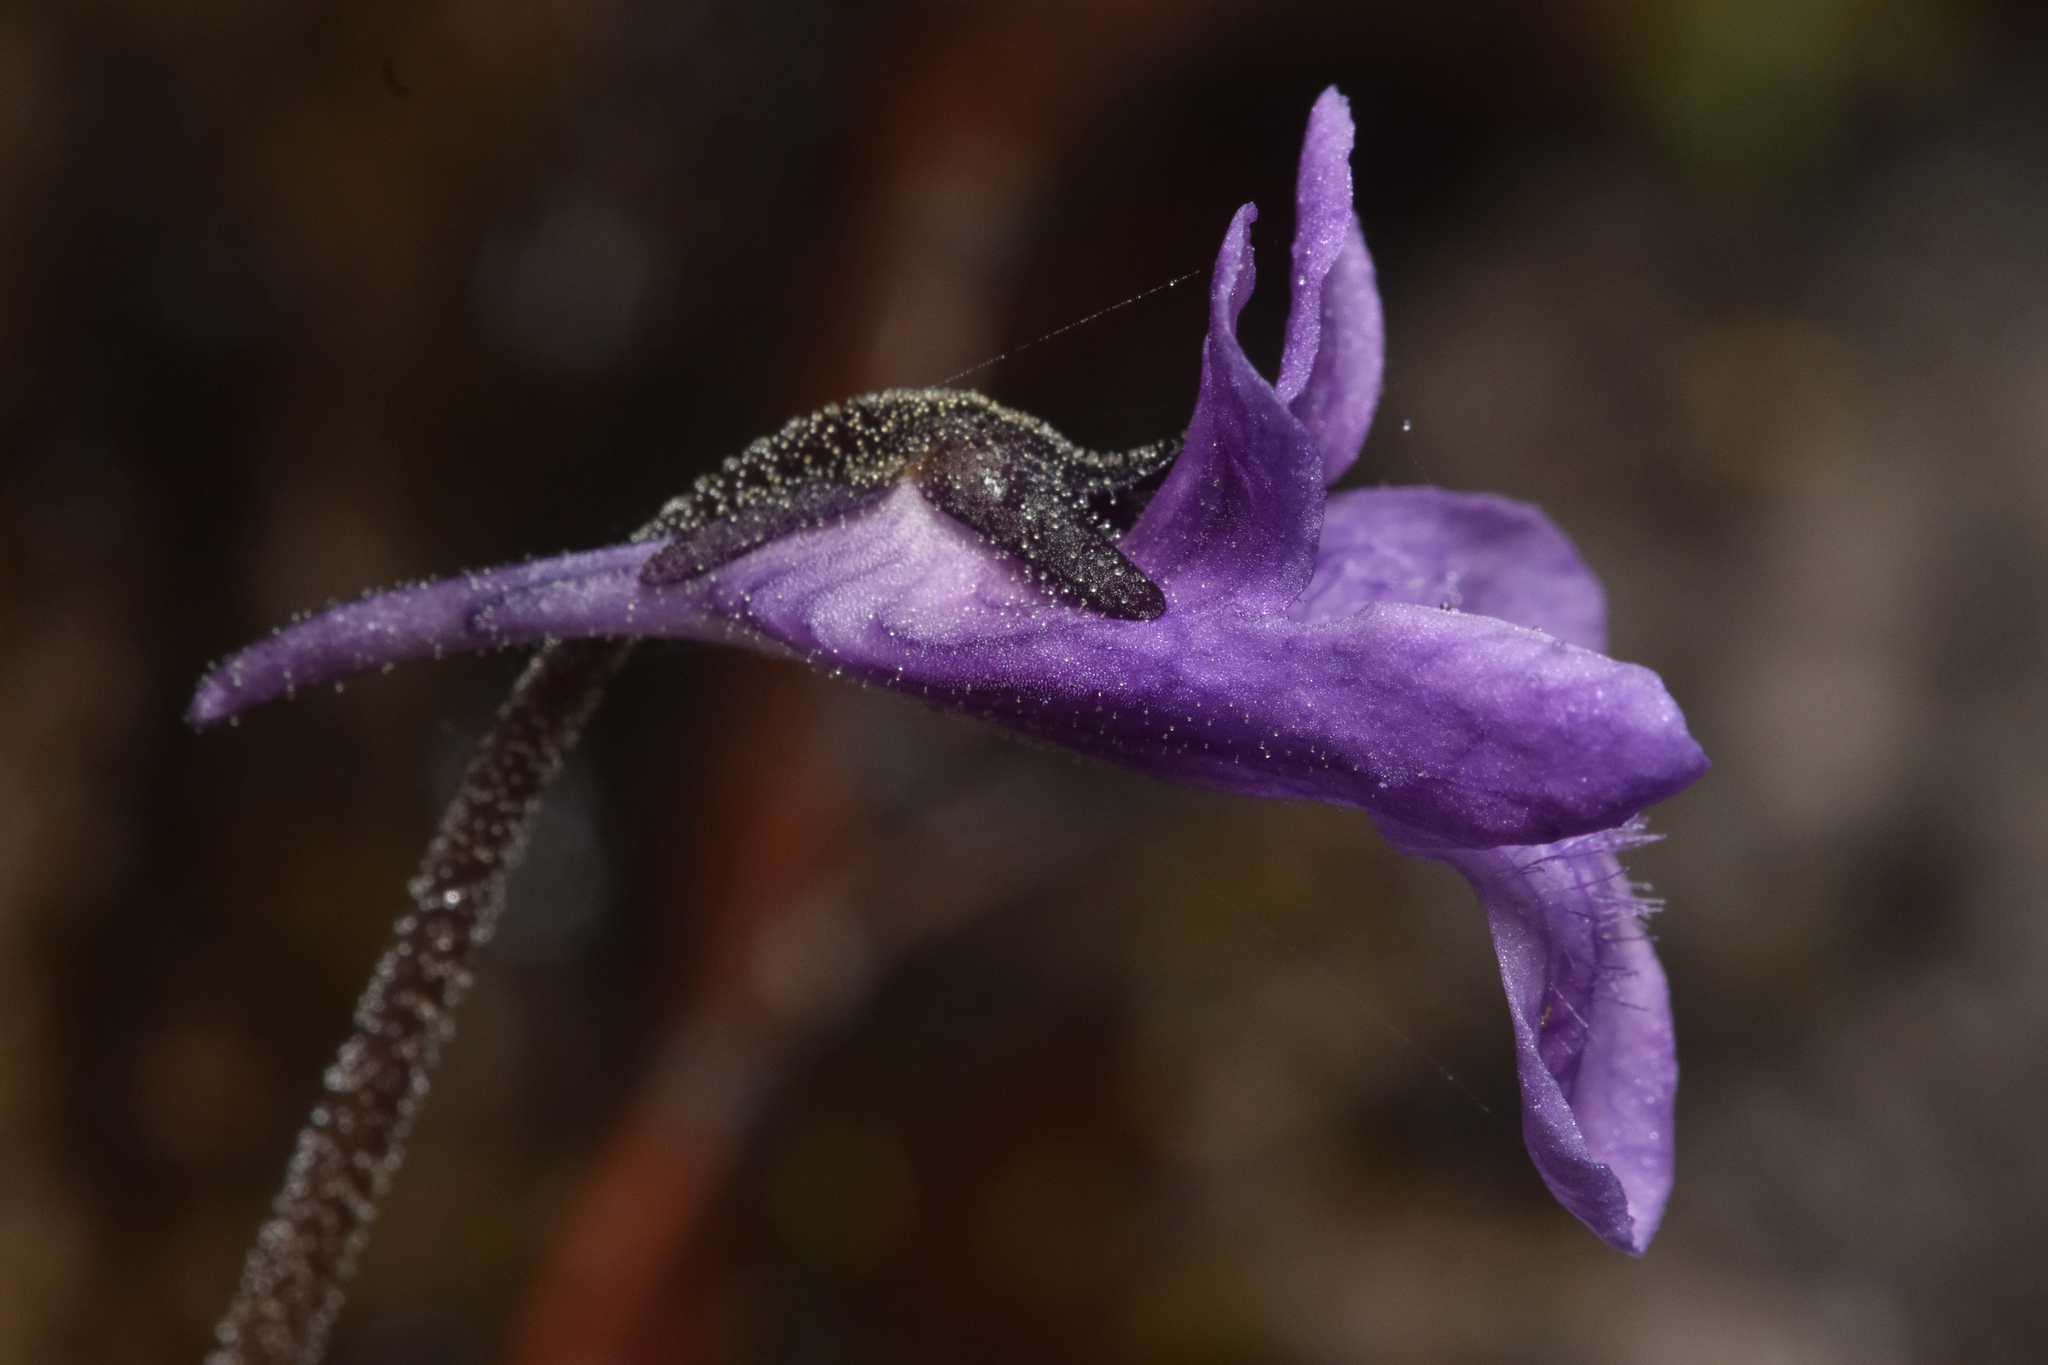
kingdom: Plantae
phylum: Tracheophyta
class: Magnoliopsida
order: Lamiales
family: Lentibulariaceae
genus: Pinguicula
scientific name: Pinguicula vulgaris
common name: Common butterwort
